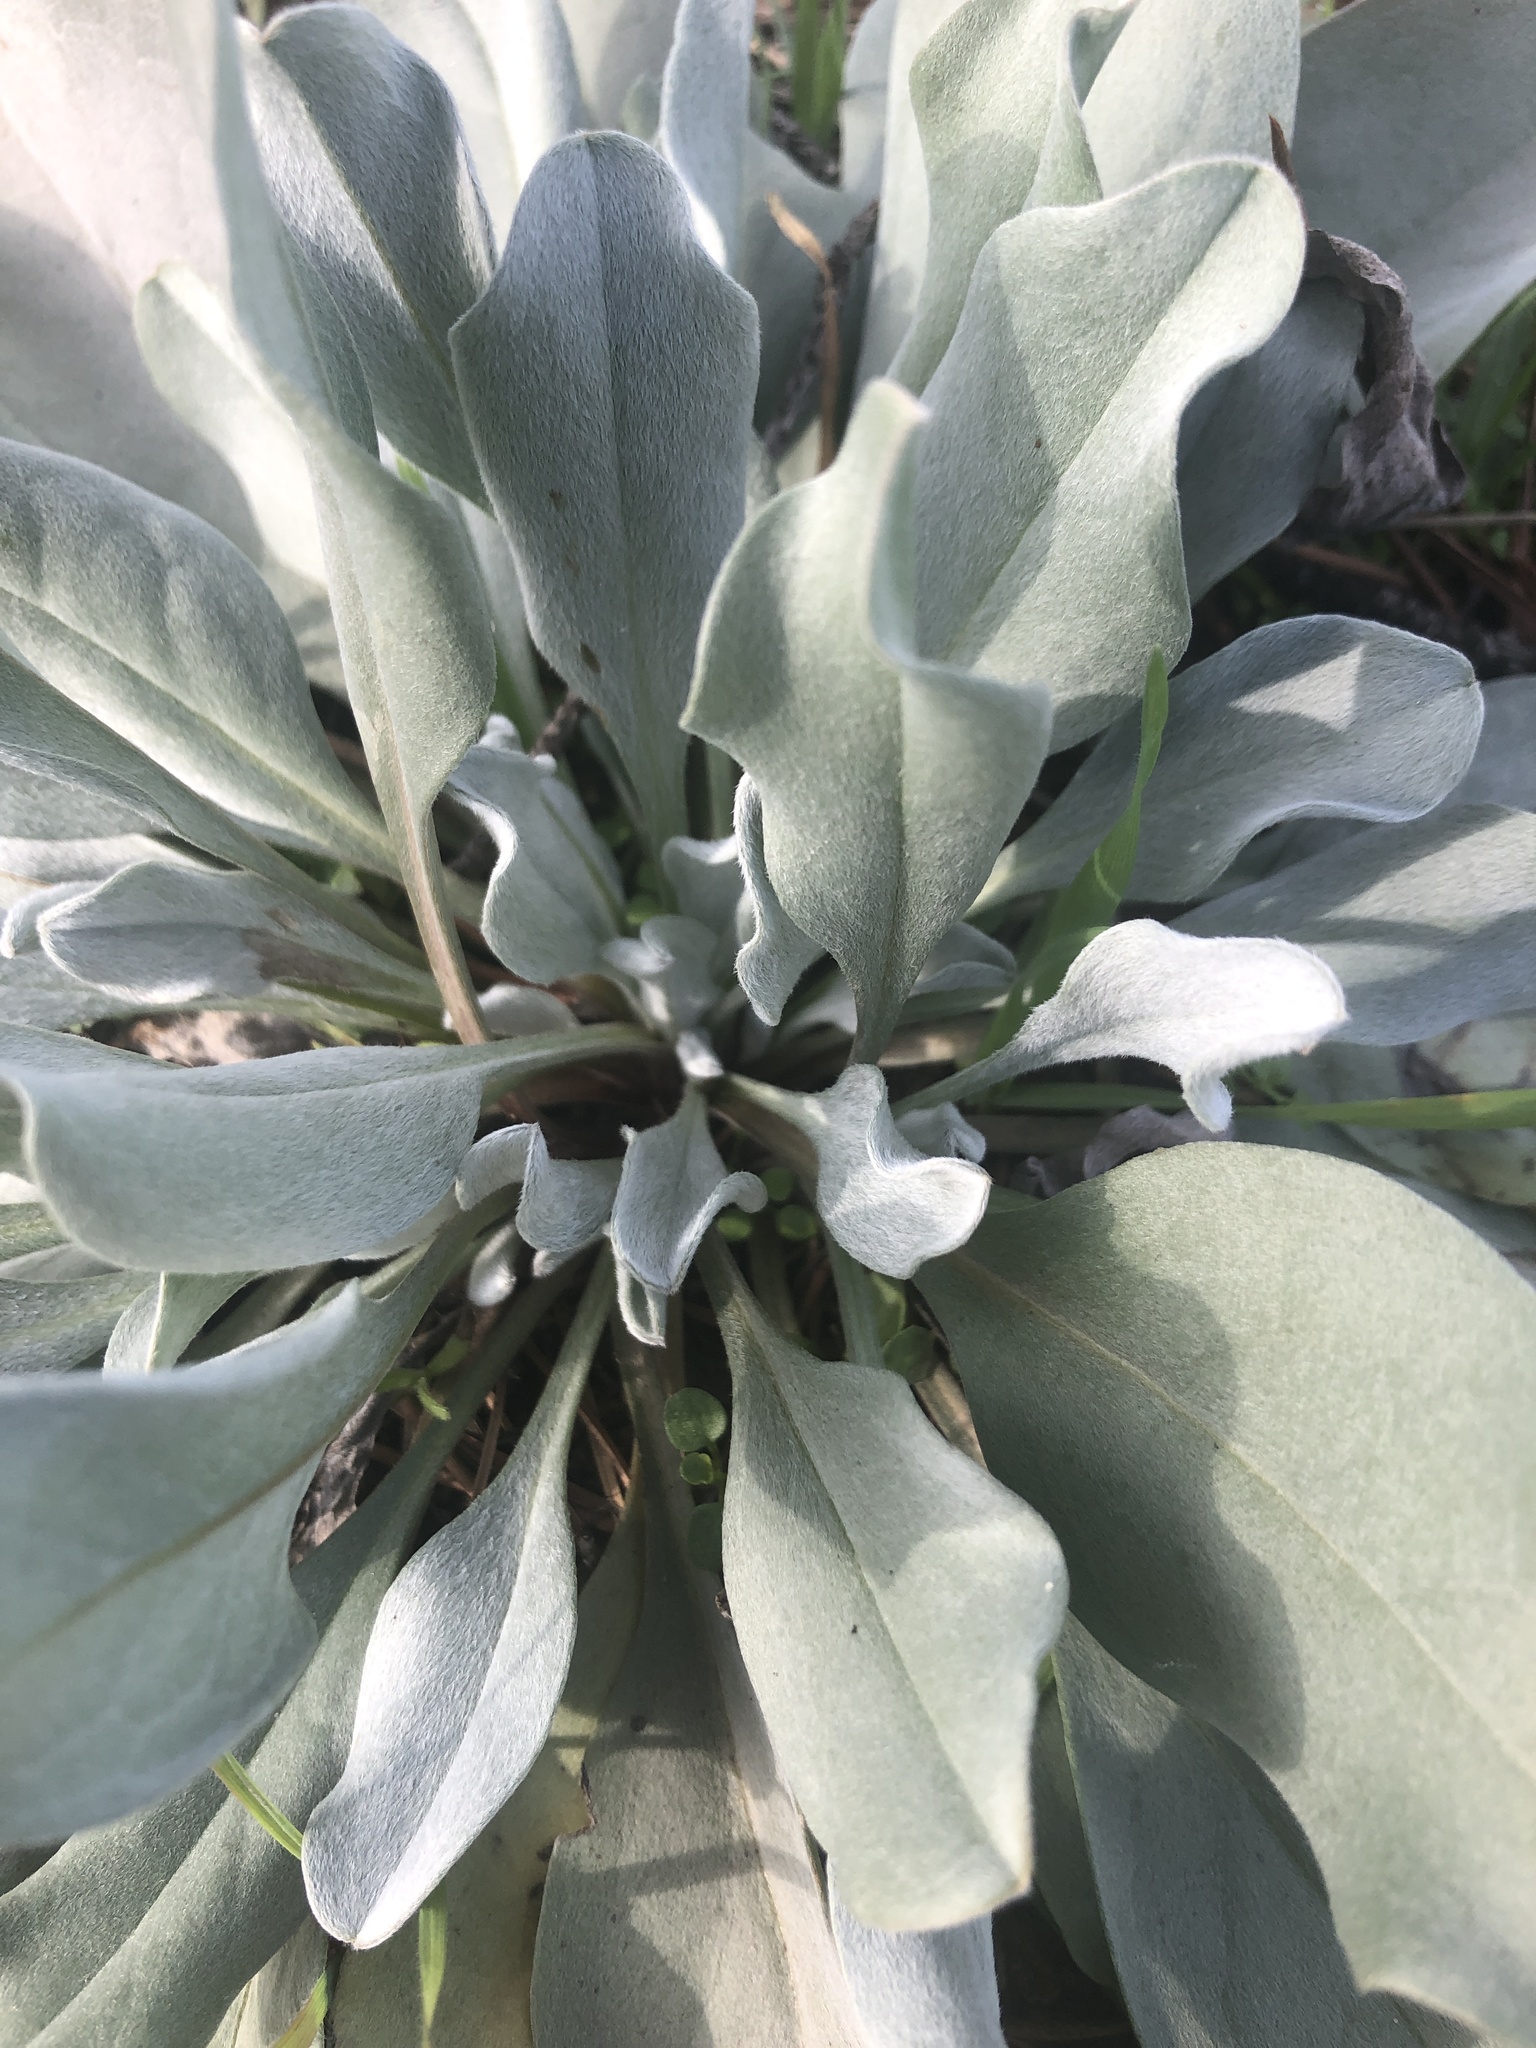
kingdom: Plantae
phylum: Tracheophyta
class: Magnoliopsida
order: Boraginales
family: Boraginaceae
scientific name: Boraginaceae
